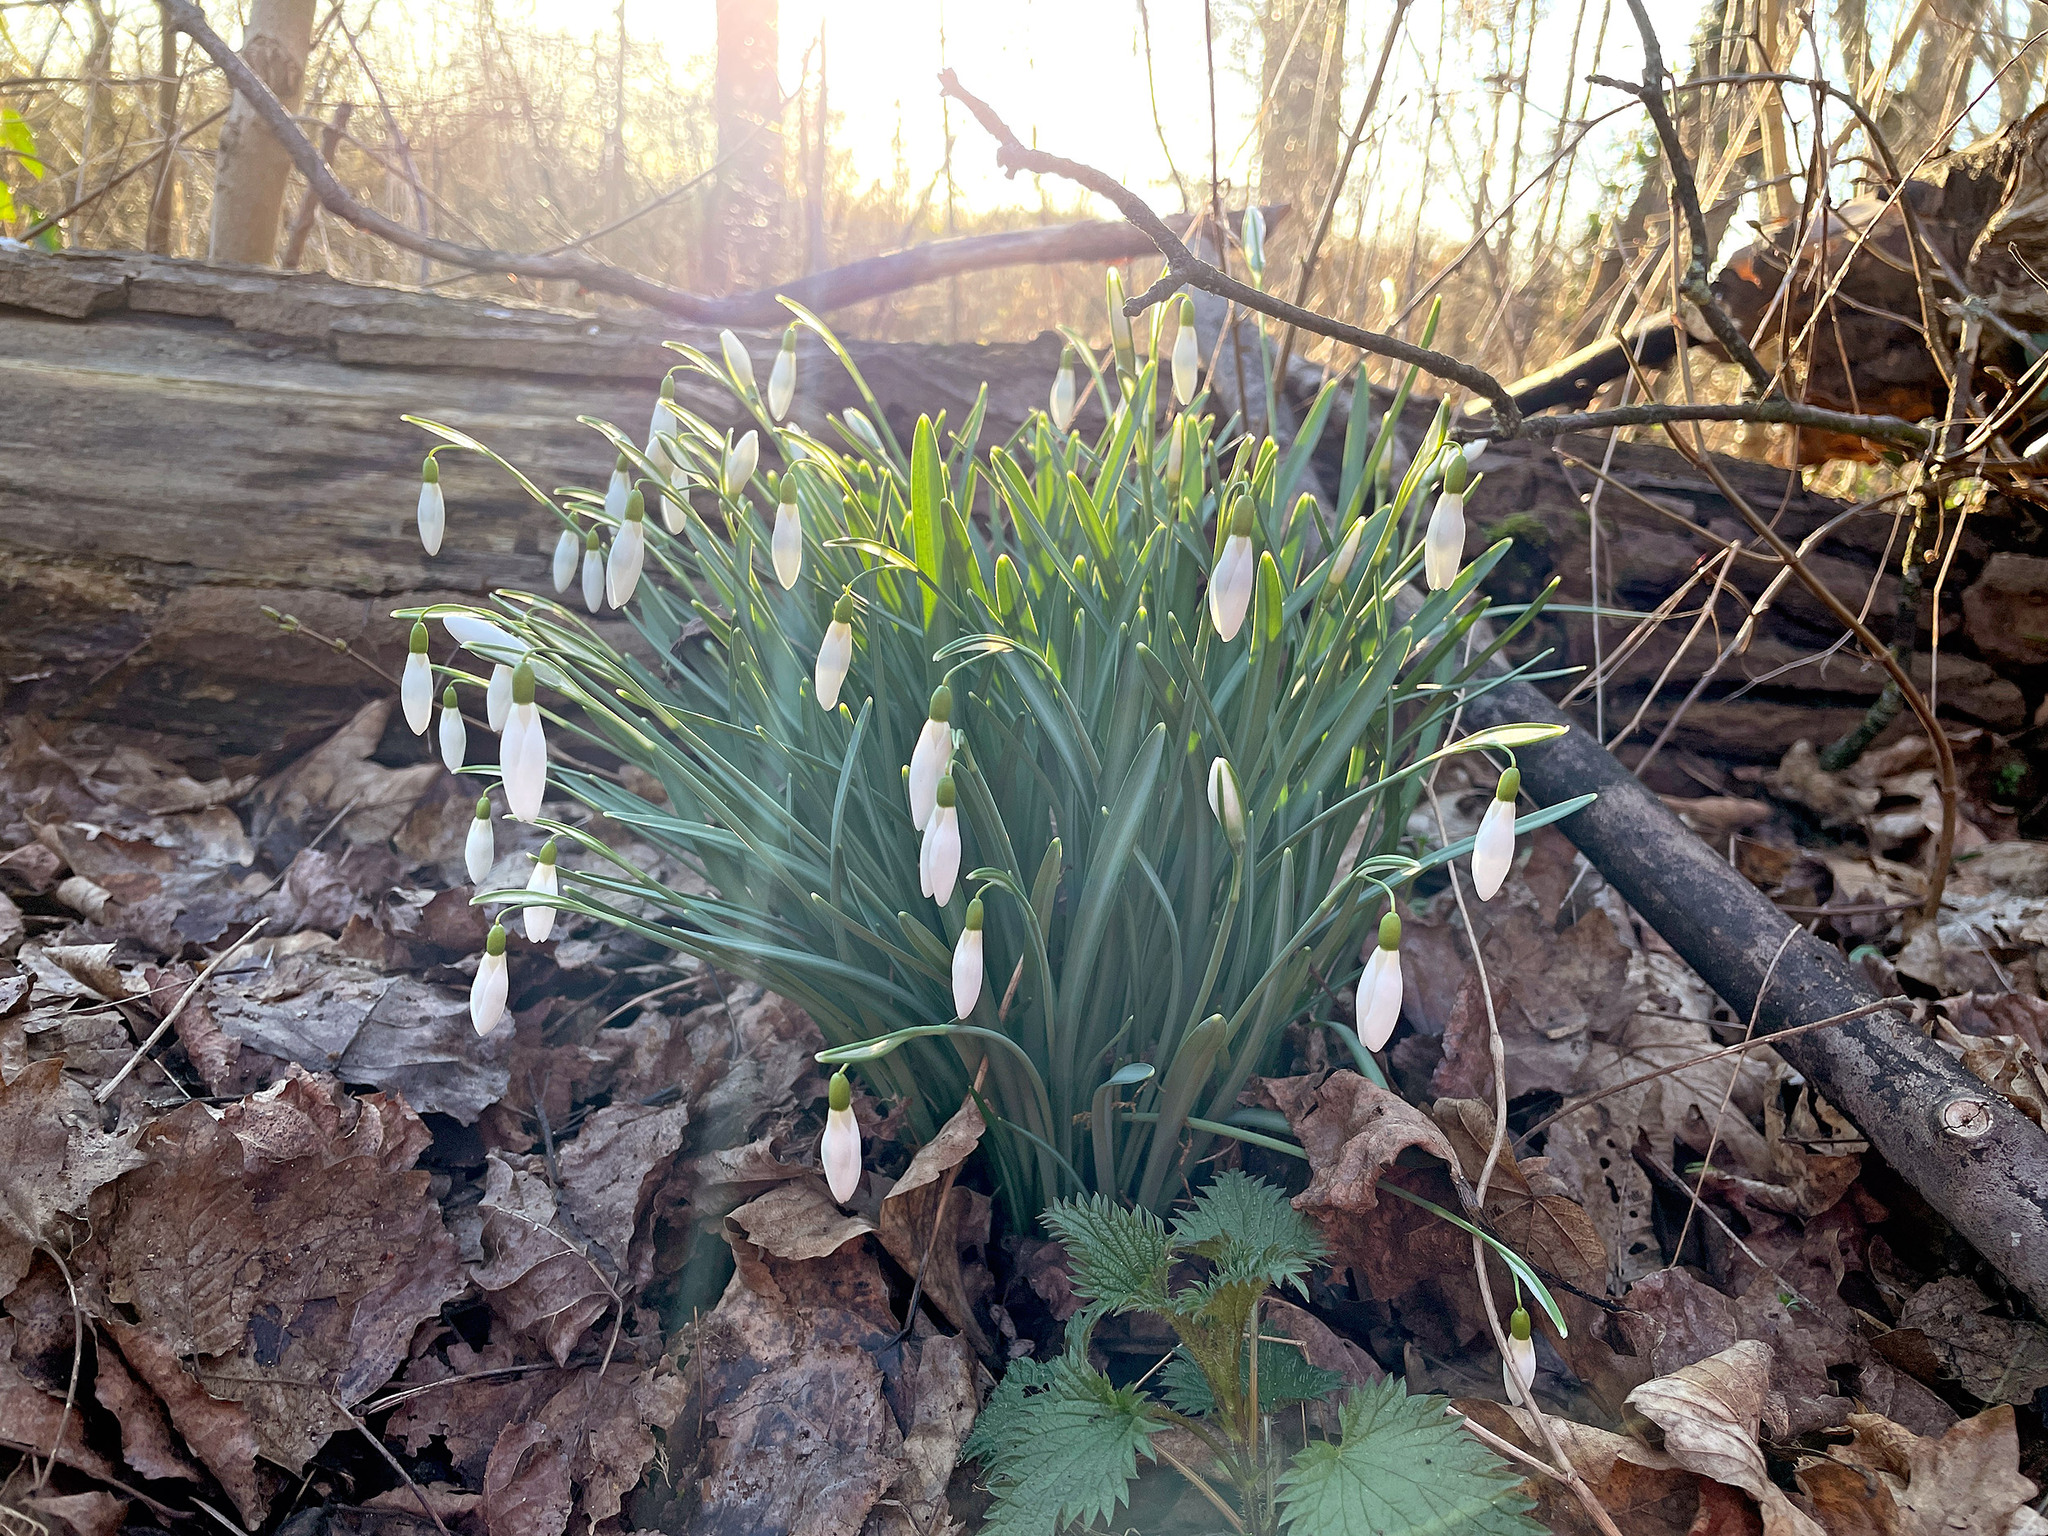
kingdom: Plantae
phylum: Tracheophyta
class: Liliopsida
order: Asparagales
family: Amaryllidaceae
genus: Galanthus
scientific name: Galanthus nivalis
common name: Snowdrop
